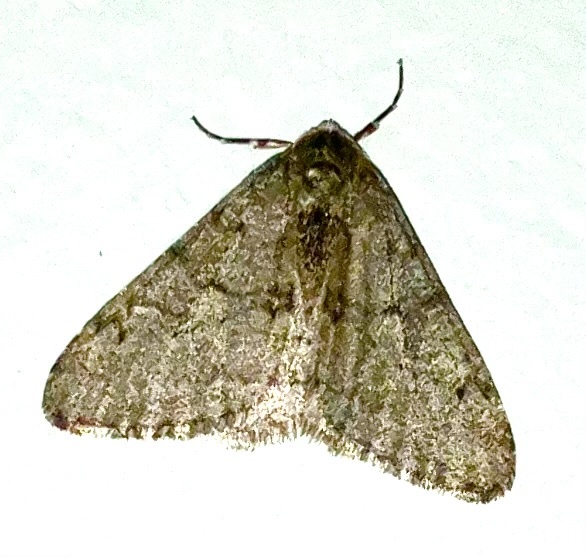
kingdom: Animalia
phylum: Arthropoda
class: Insecta
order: Lepidoptera
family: Geometridae
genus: Phigalia
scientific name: Phigalia strigataria
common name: Small phigalia
